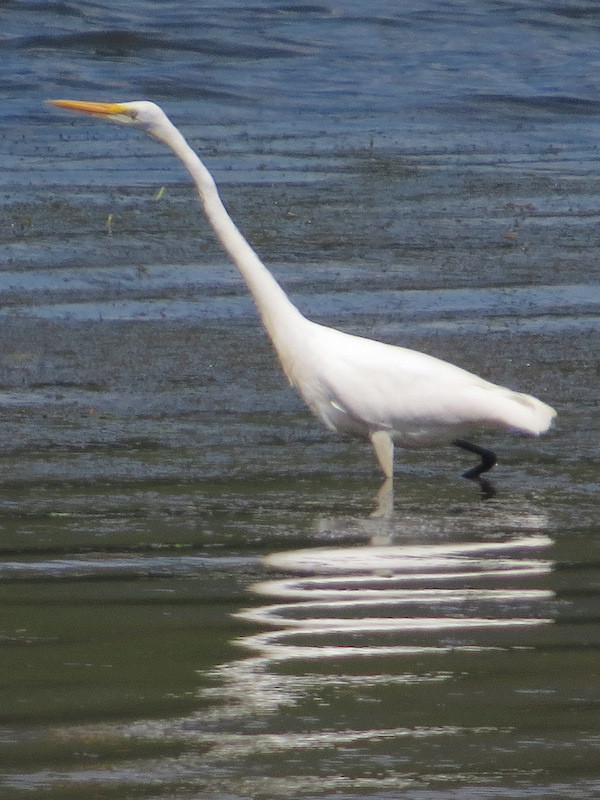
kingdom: Animalia
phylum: Chordata
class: Aves
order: Pelecaniformes
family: Ardeidae
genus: Ardea
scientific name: Ardea alba
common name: Great egret
